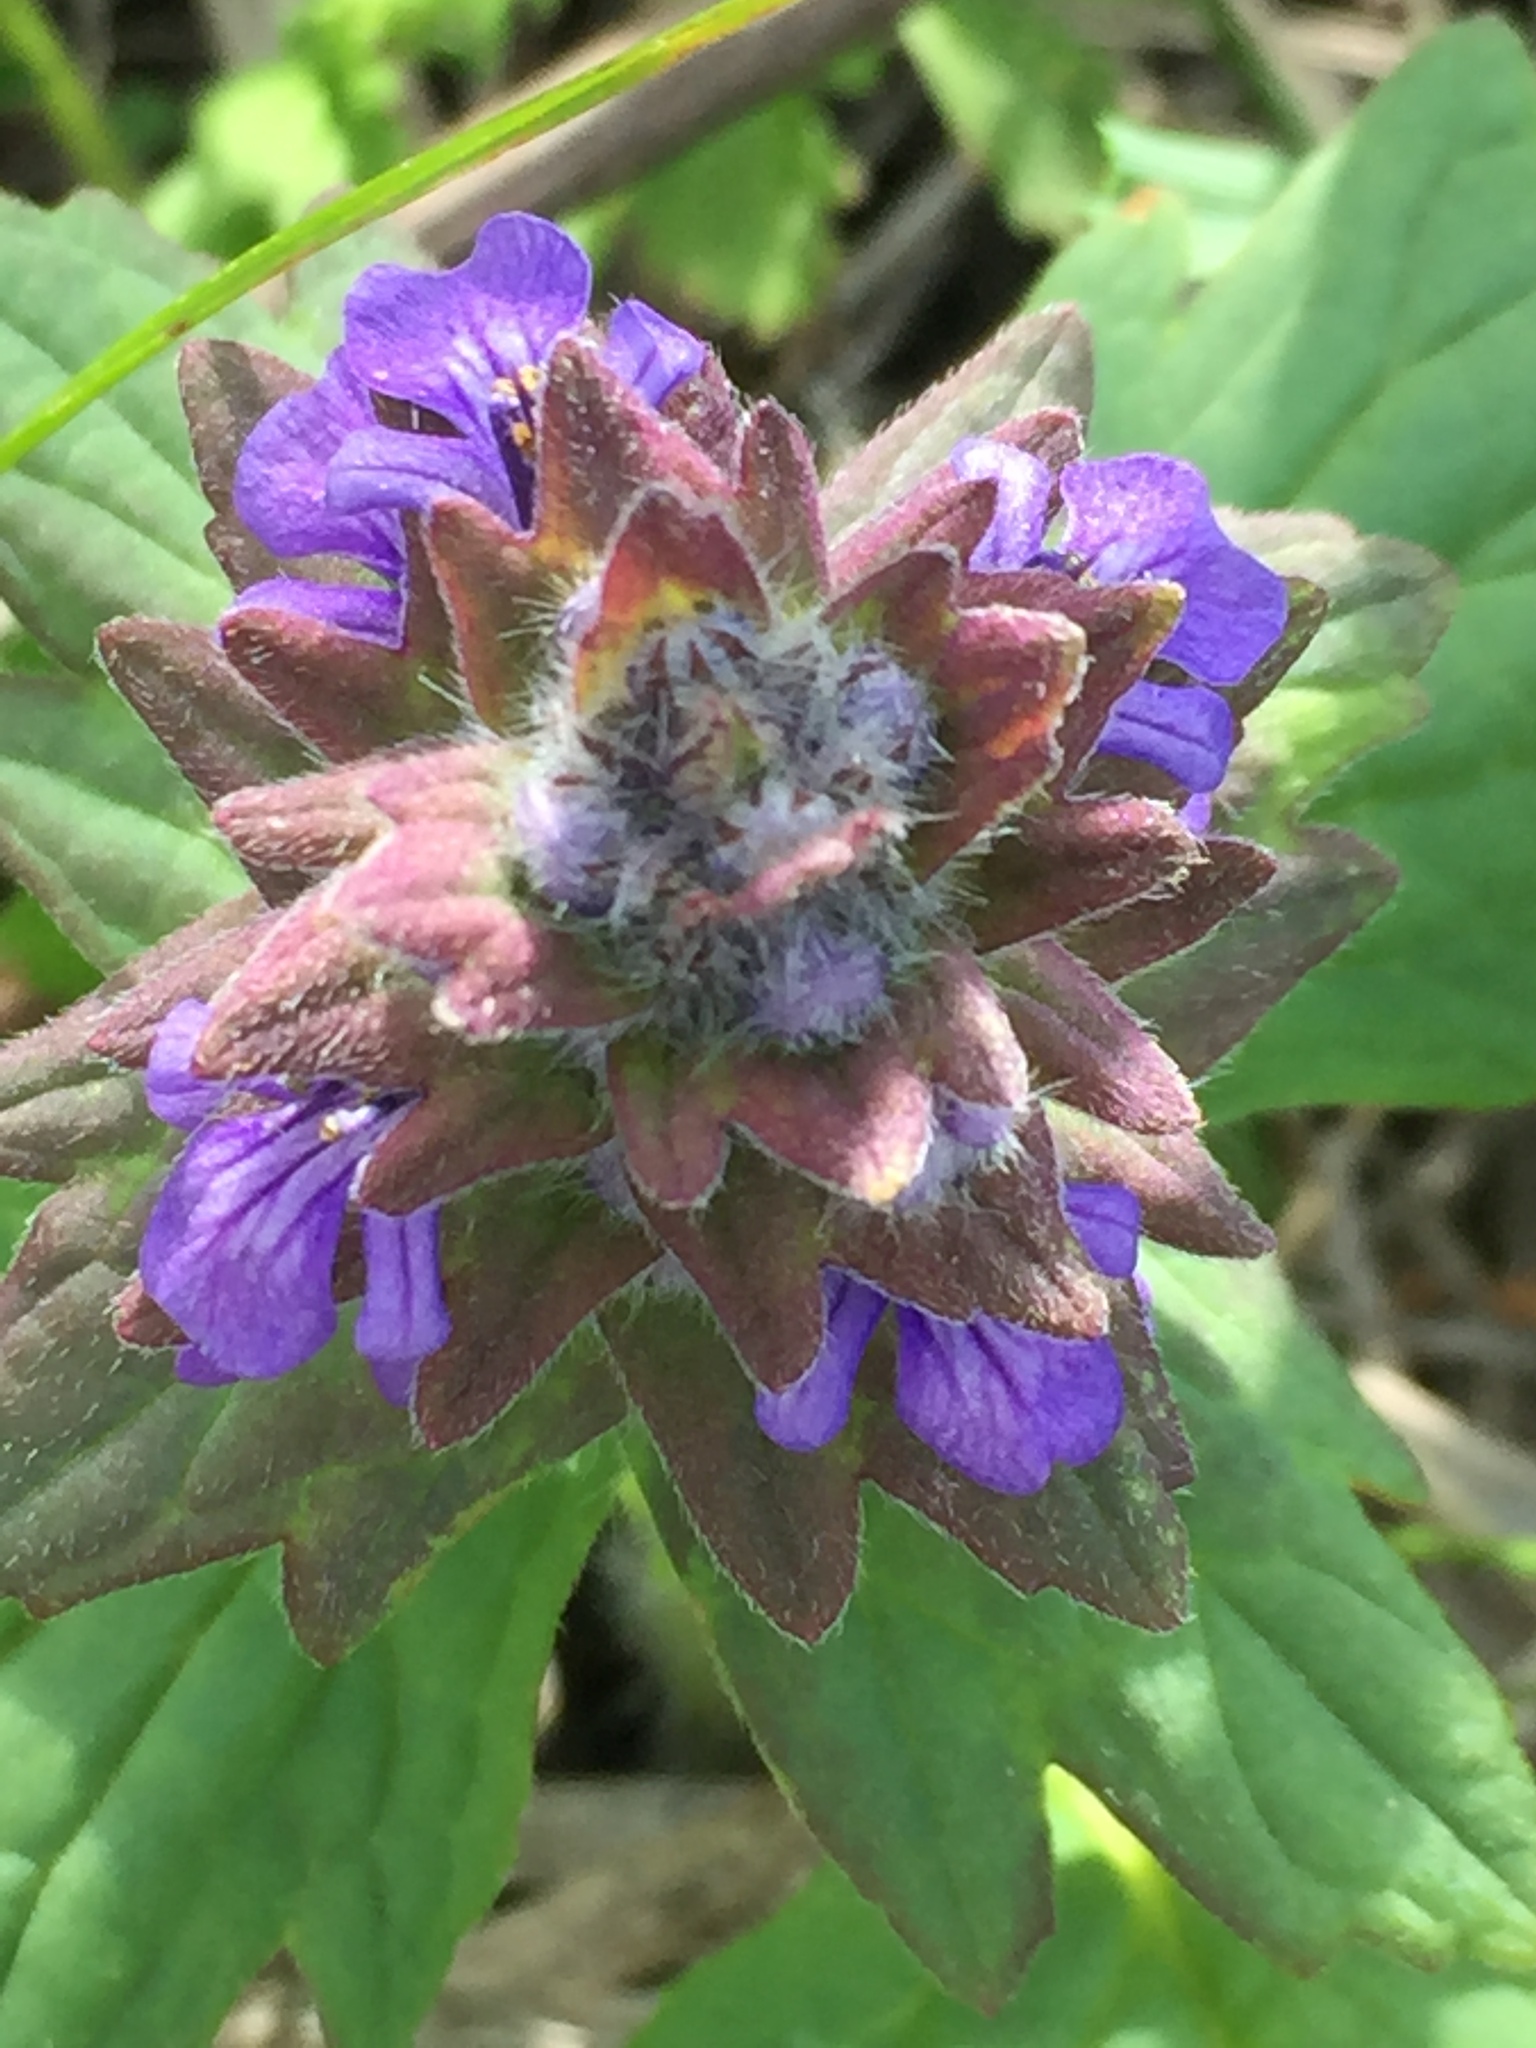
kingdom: Plantae
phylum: Tracheophyta
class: Magnoliopsida
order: Lamiales
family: Lamiaceae
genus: Ajuga
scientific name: Ajuga genevensis
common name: Blue bugle
